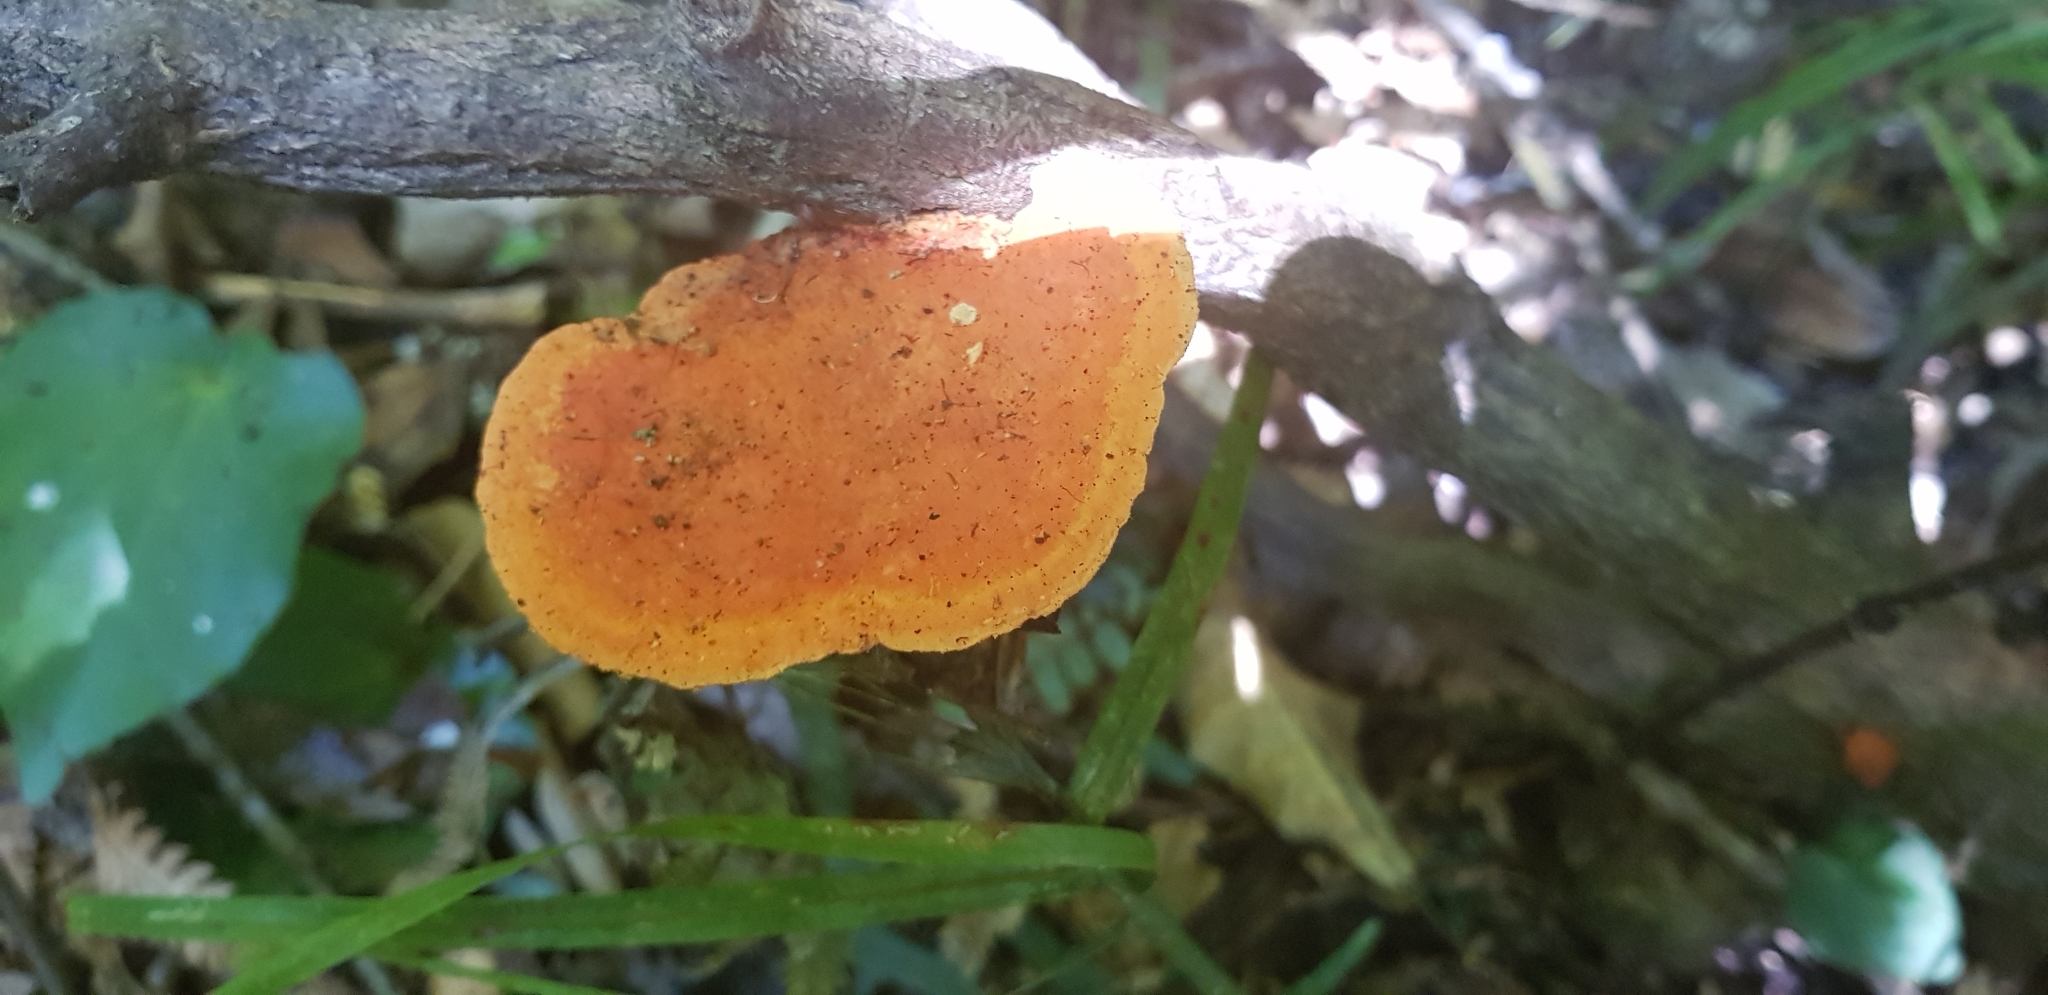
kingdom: Fungi
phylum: Basidiomycota
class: Agaricomycetes
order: Polyporales
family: Polyporaceae
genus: Trametes
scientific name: Trametes coccinea
